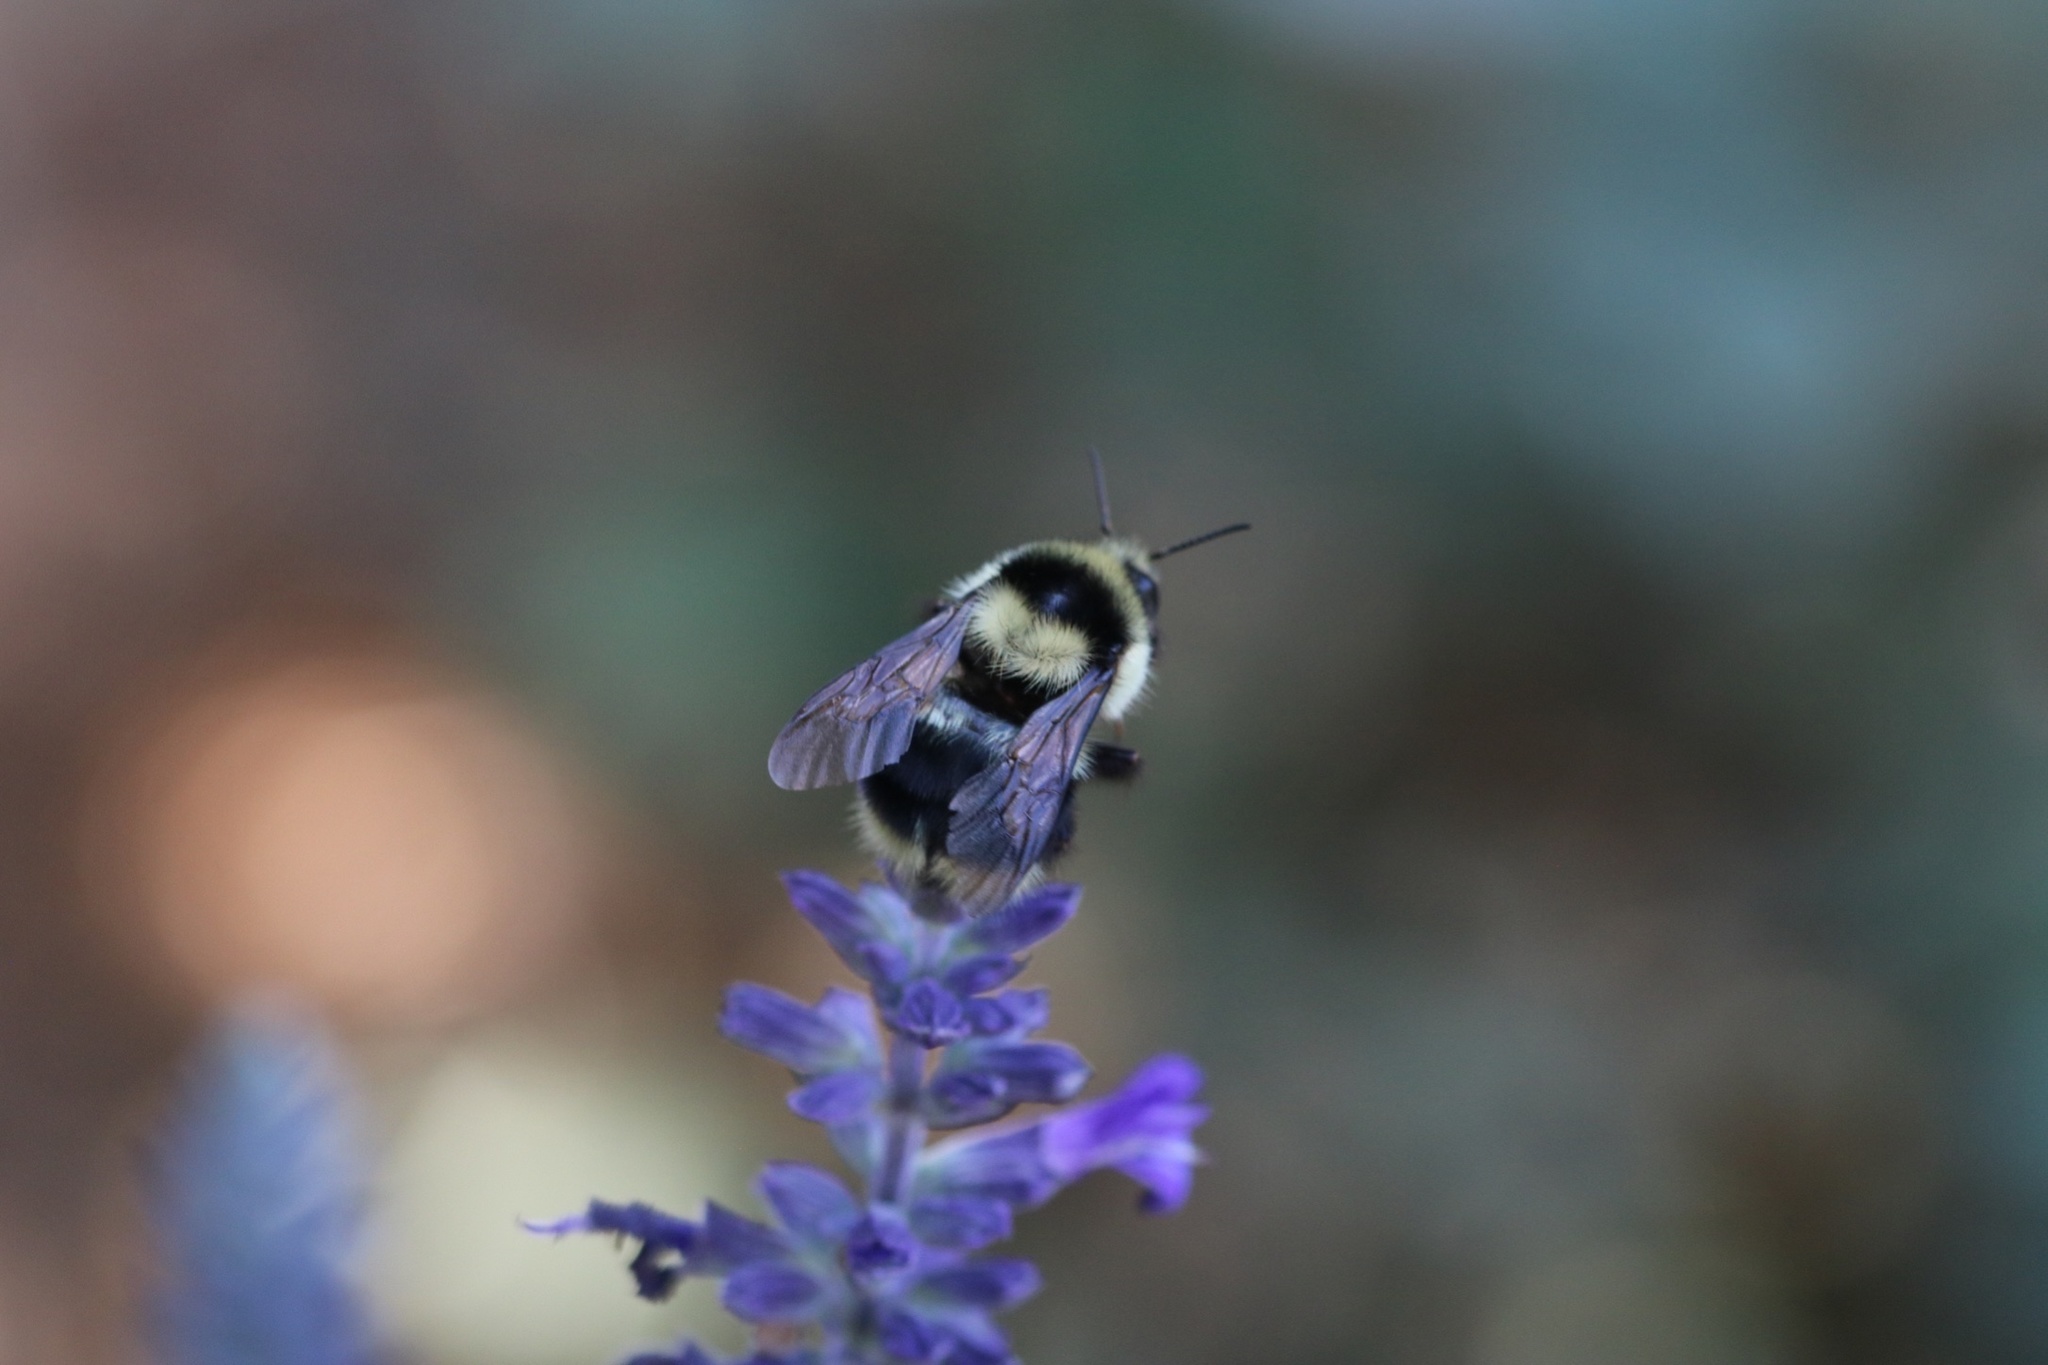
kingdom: Animalia
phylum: Arthropoda
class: Insecta
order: Hymenoptera
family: Apidae
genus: Bombus
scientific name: Bombus melanopygus
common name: Black tail bumble bee
